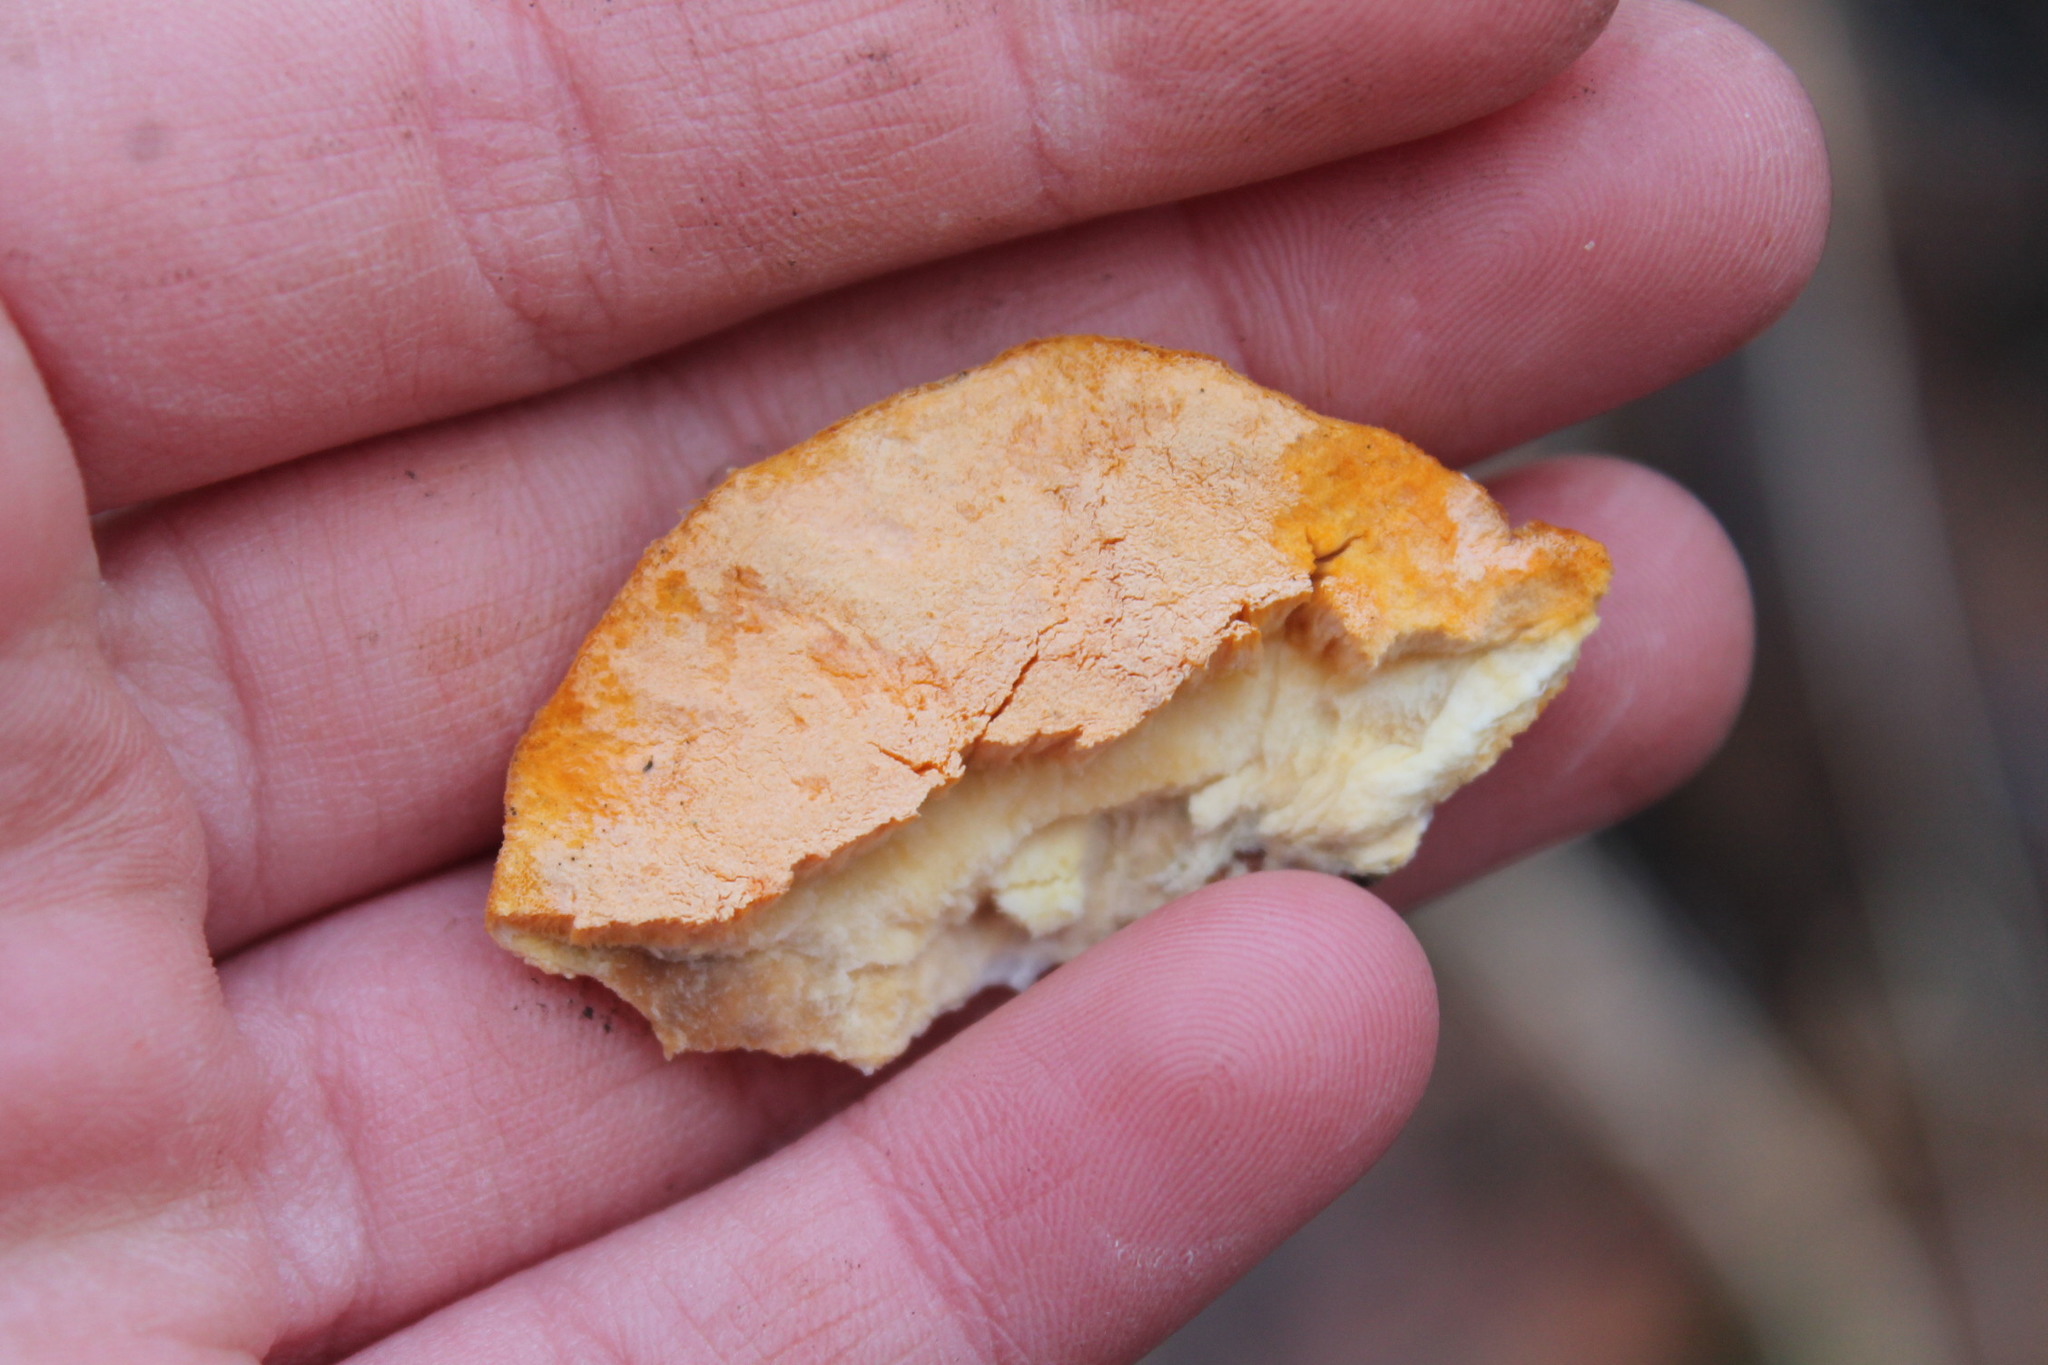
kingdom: Fungi
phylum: Basidiomycota
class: Agaricomycetes
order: Polyporales
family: Polyporaceae
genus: Trametes
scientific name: Trametes cinnabarina
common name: Northern cinnabar polypore
